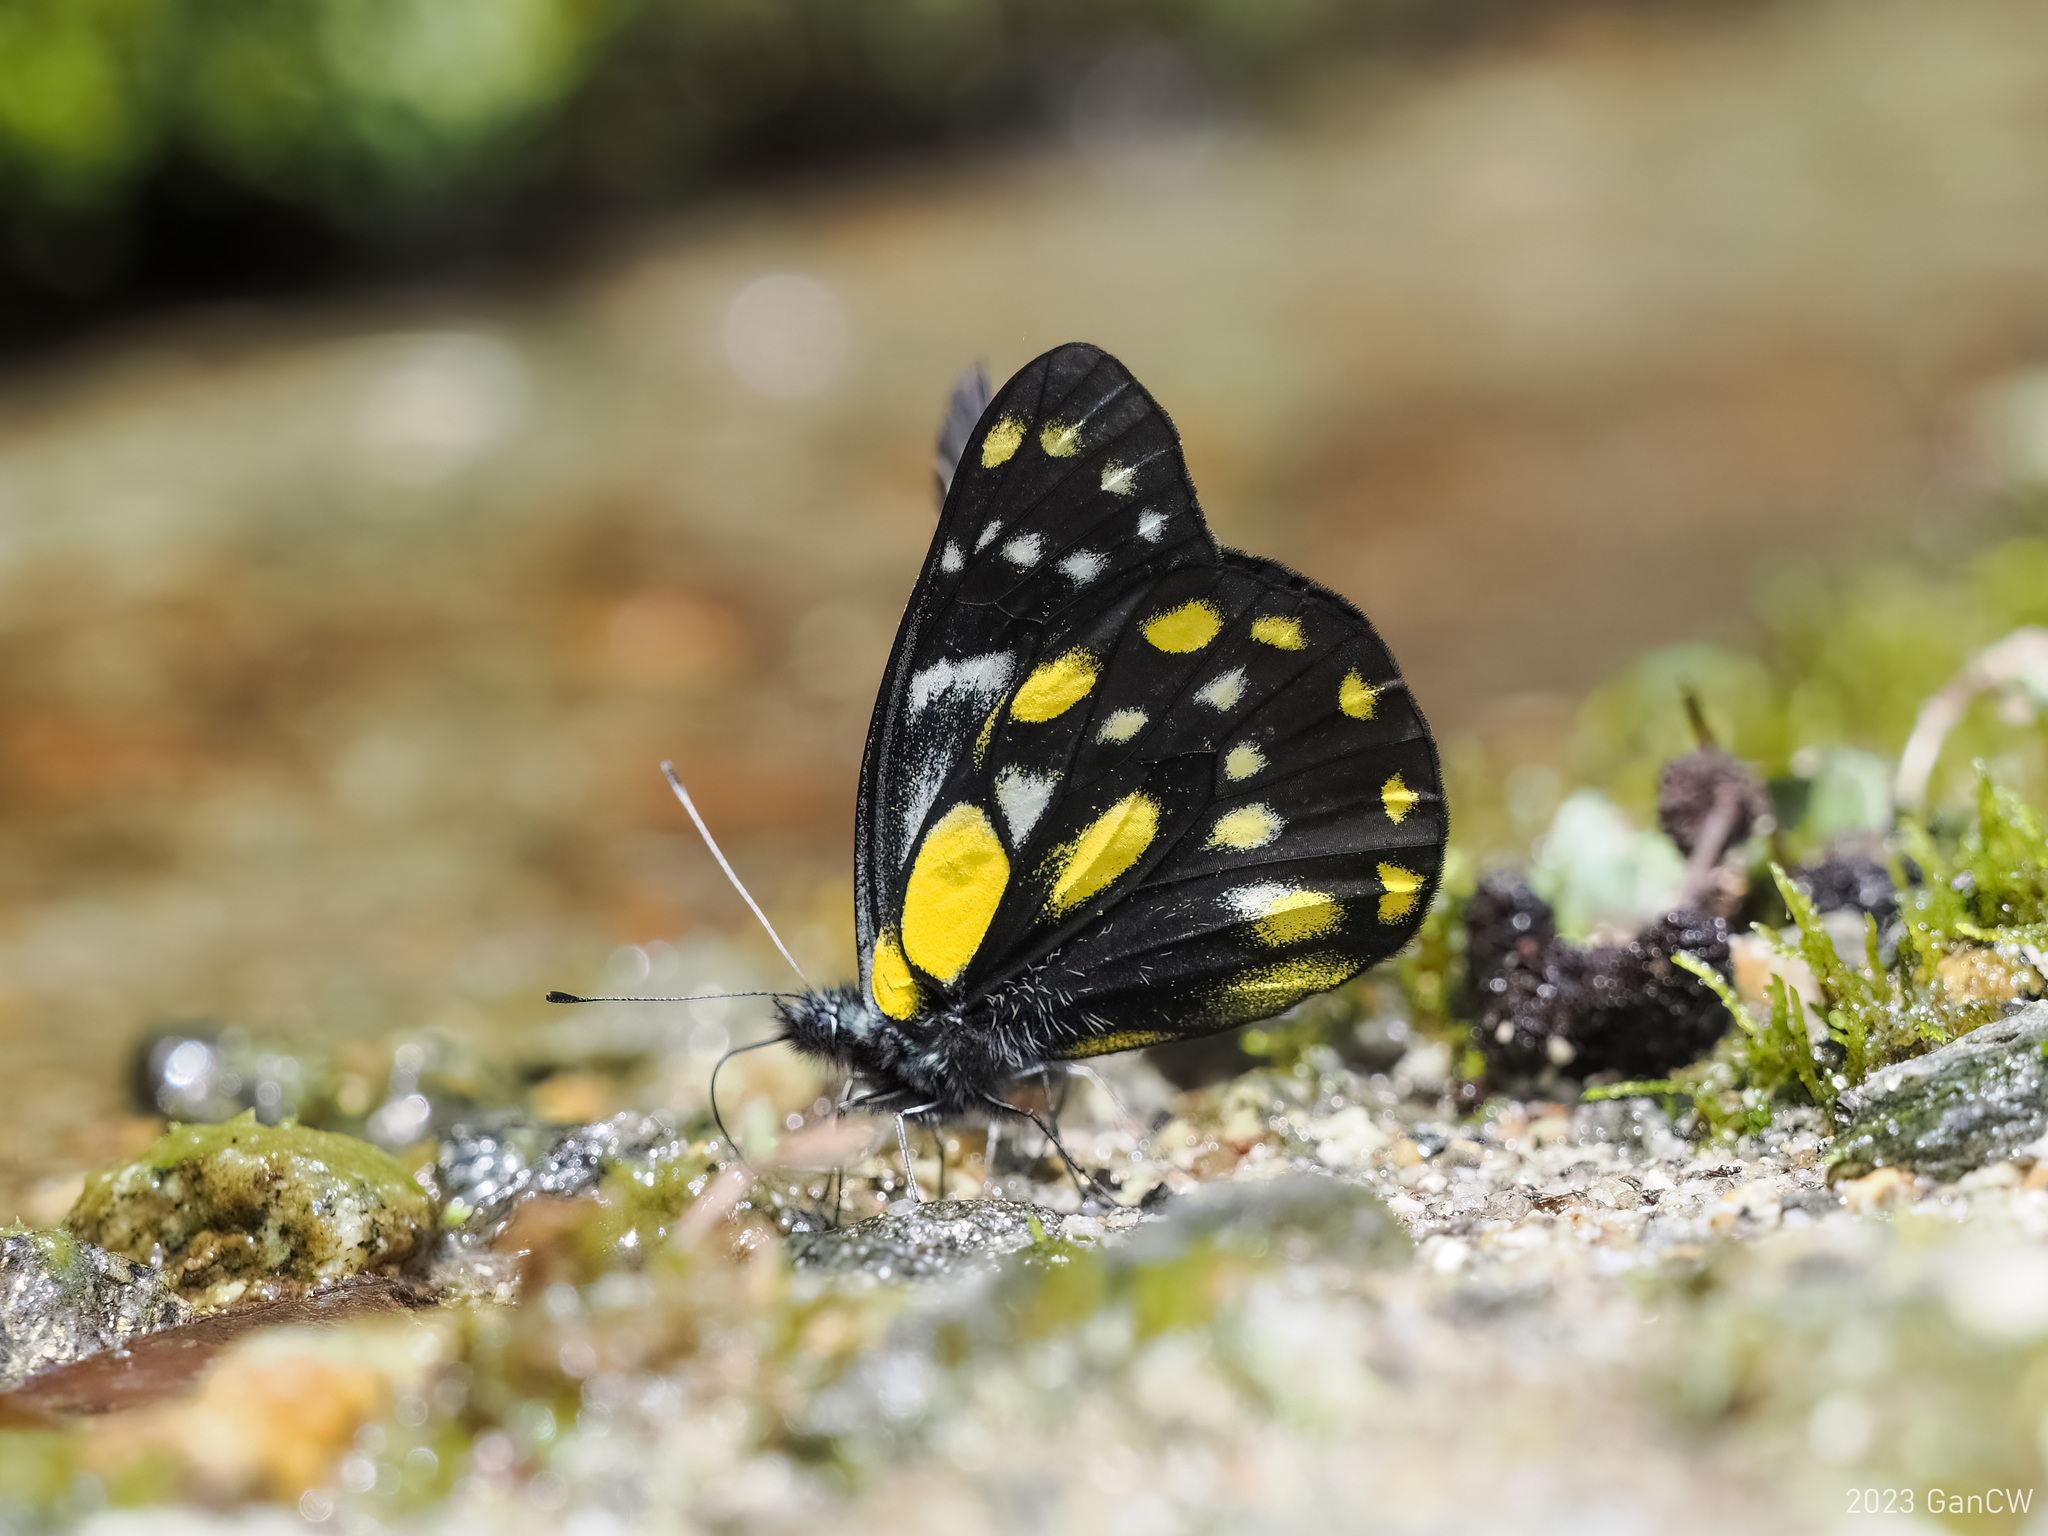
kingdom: Animalia
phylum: Arthropoda
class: Insecta
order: Lepidoptera
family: Pieridae
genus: Delias
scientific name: Delias belladonna
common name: Hill jezebel
